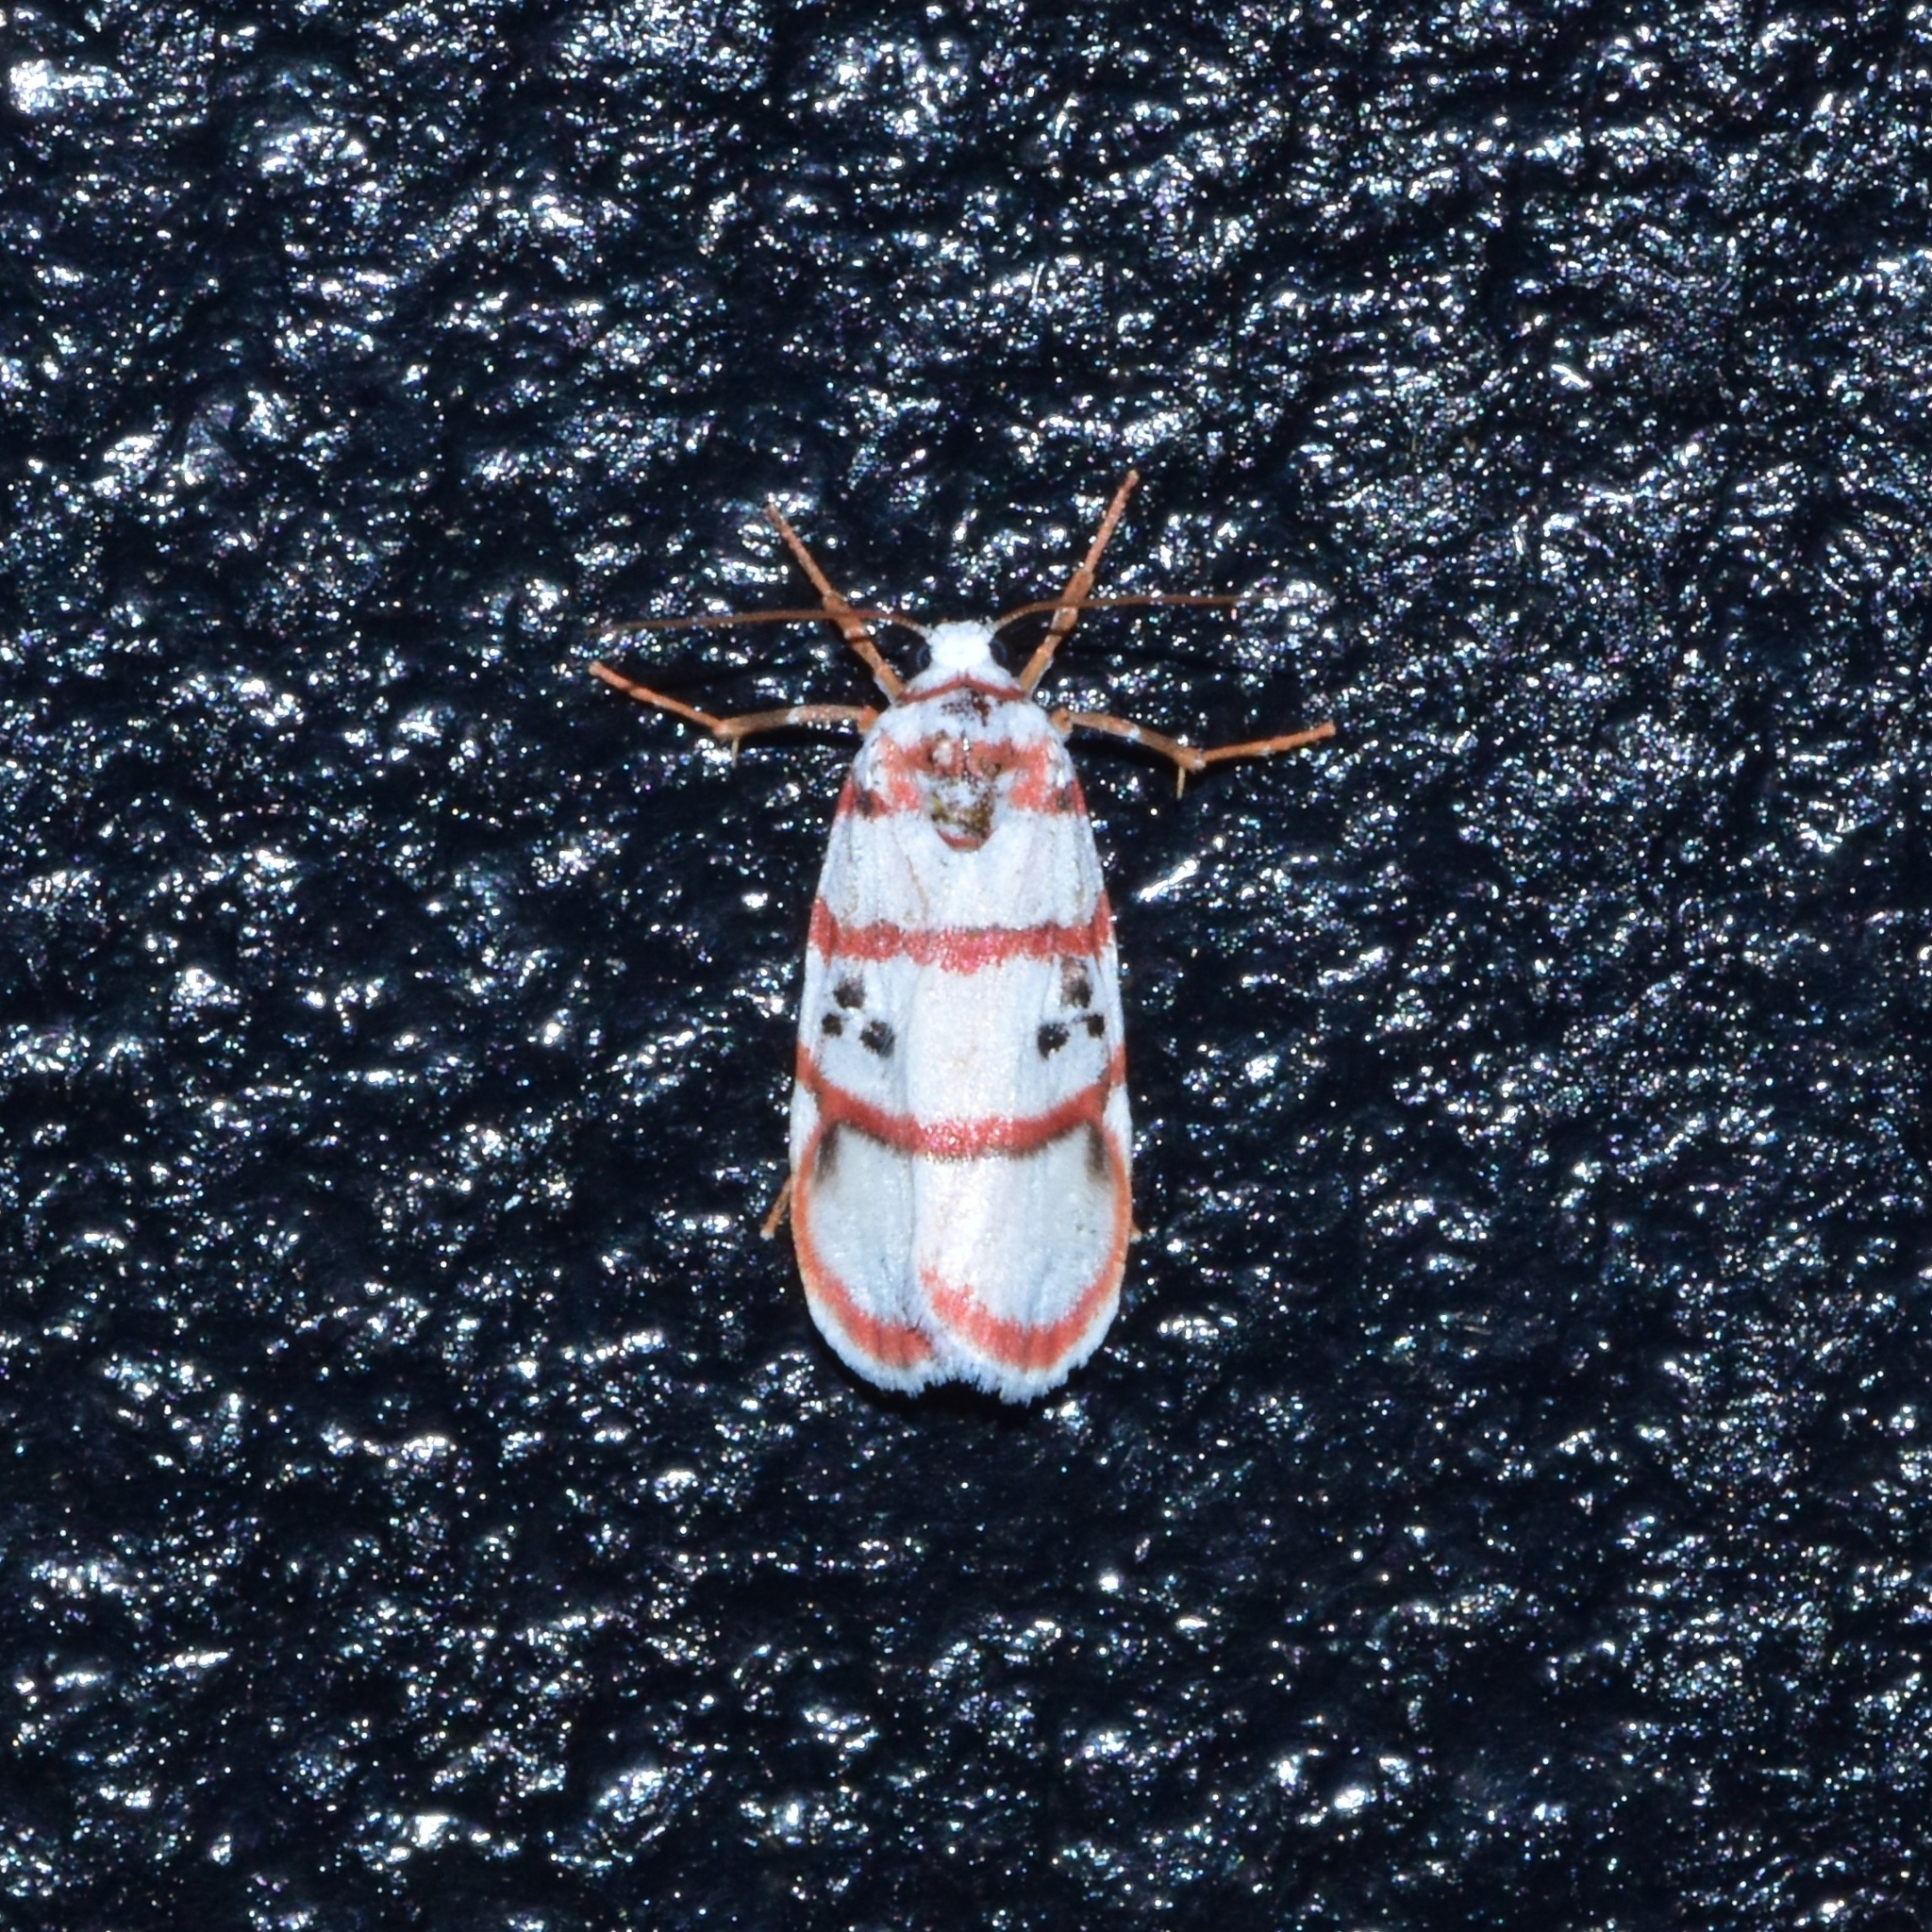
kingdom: Animalia
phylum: Arthropoda
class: Insecta
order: Lepidoptera
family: Erebidae
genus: Cyana
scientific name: Cyana peregrina
